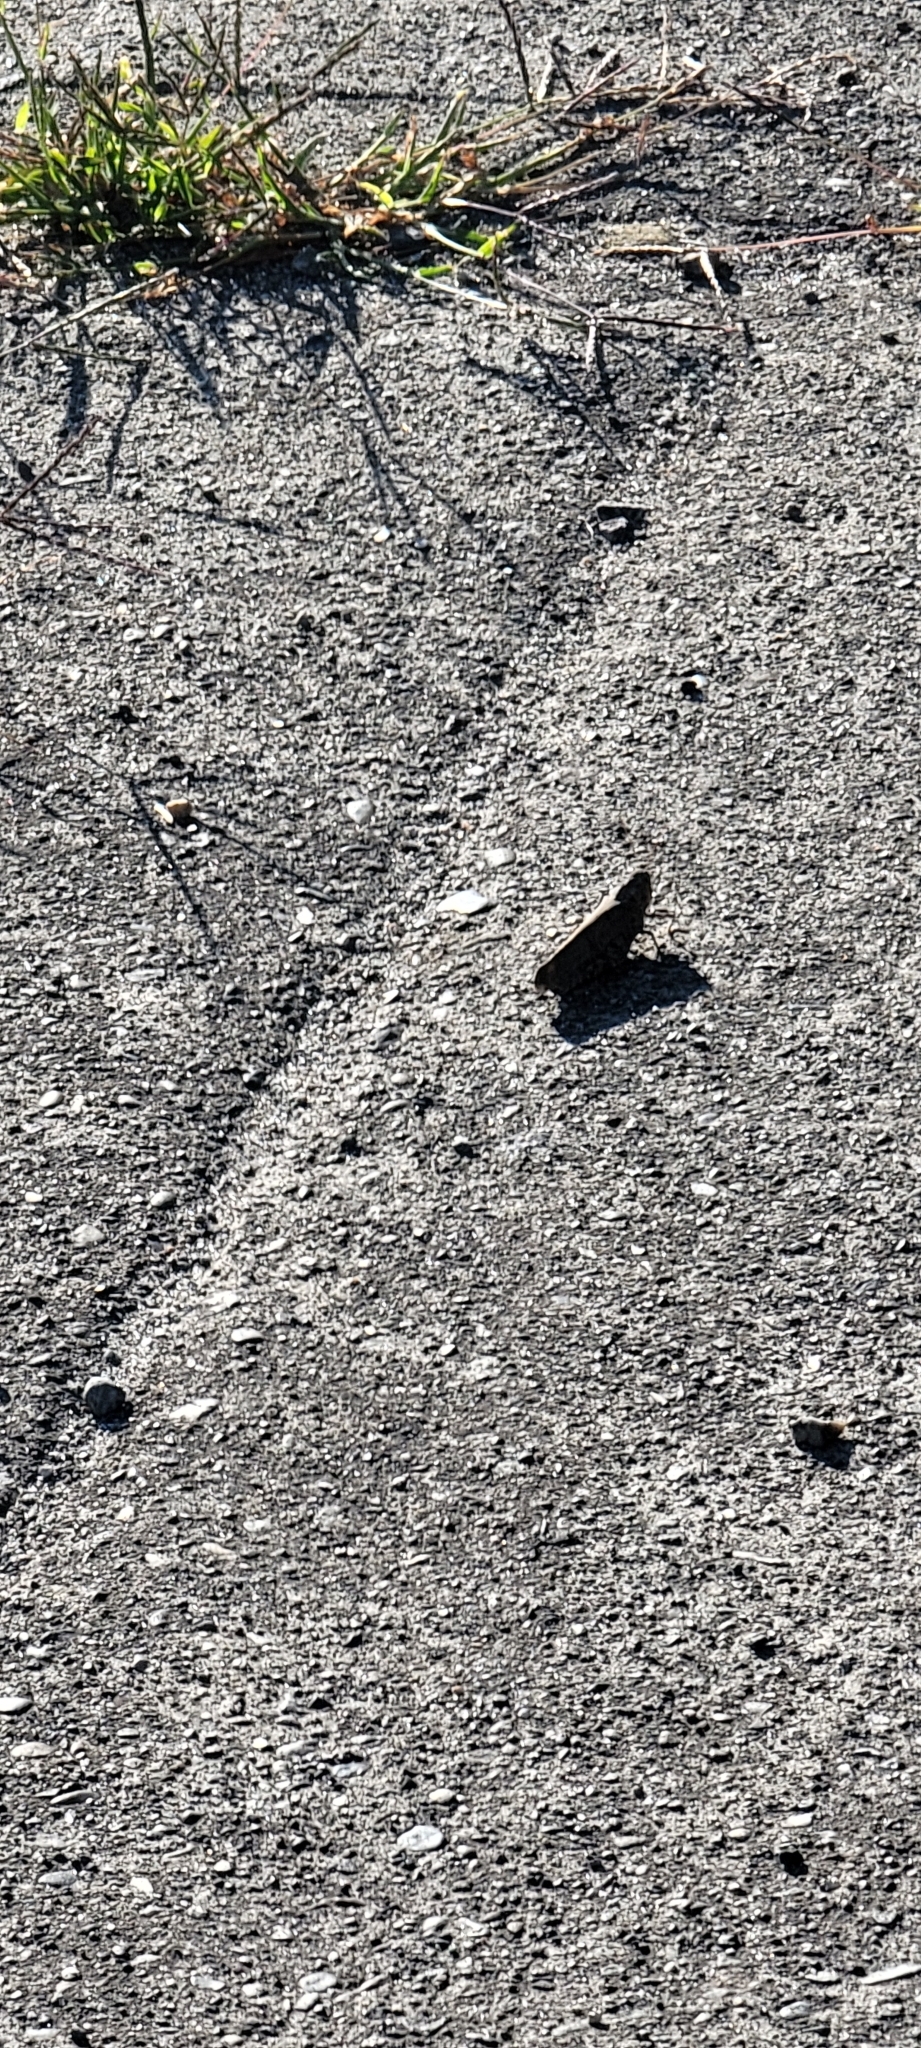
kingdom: Animalia
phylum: Arthropoda
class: Insecta
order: Orthoptera
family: Acrididae
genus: Dissosteira
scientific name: Dissosteira carolina
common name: Carolina grasshopper
